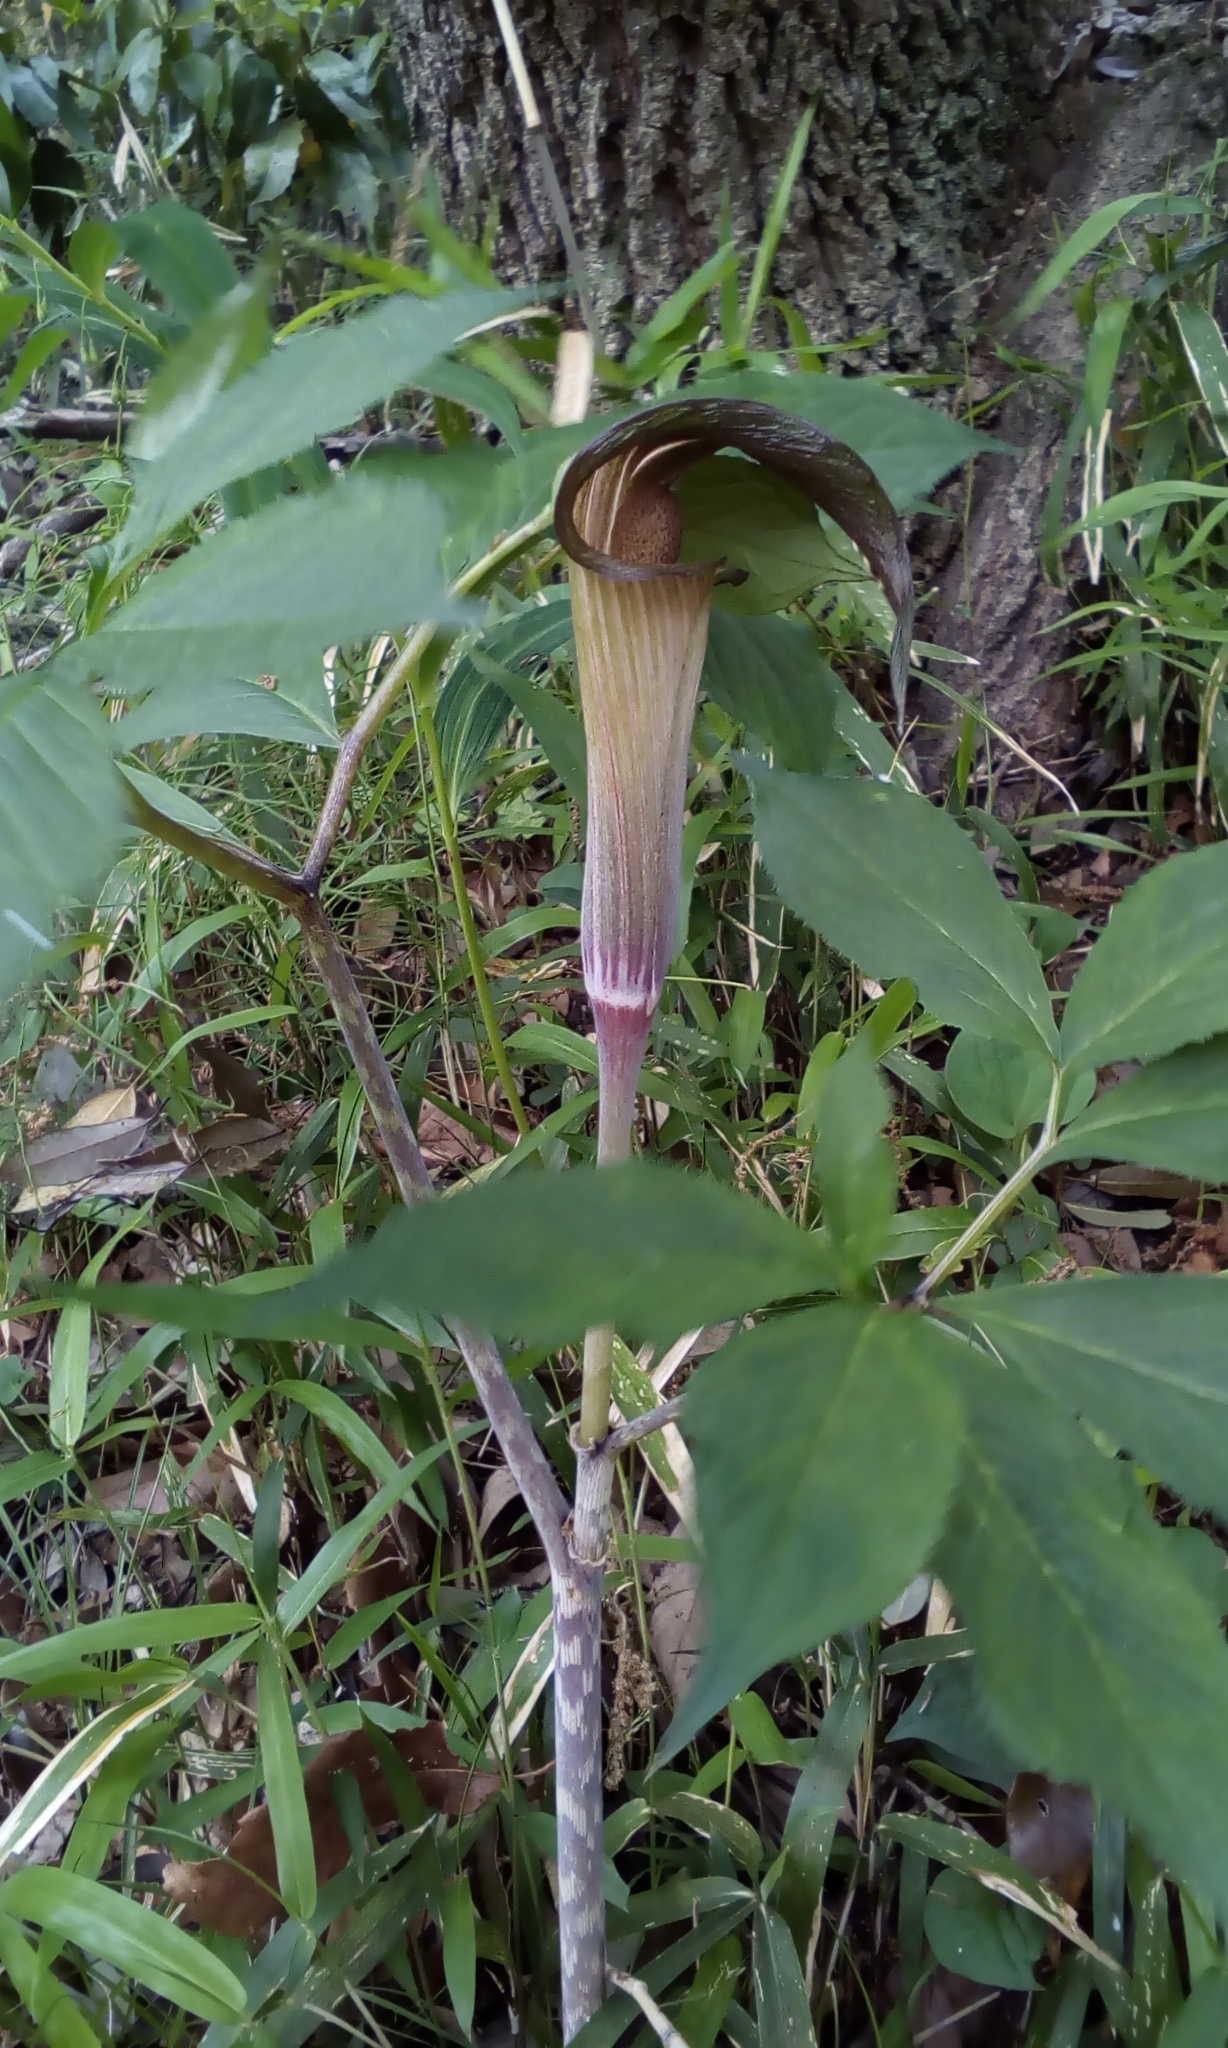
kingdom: Plantae
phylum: Tracheophyta
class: Liliopsida
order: Alismatales
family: Araceae
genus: Arisaema
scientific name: Arisaema serratum
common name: Japanese arisaema
